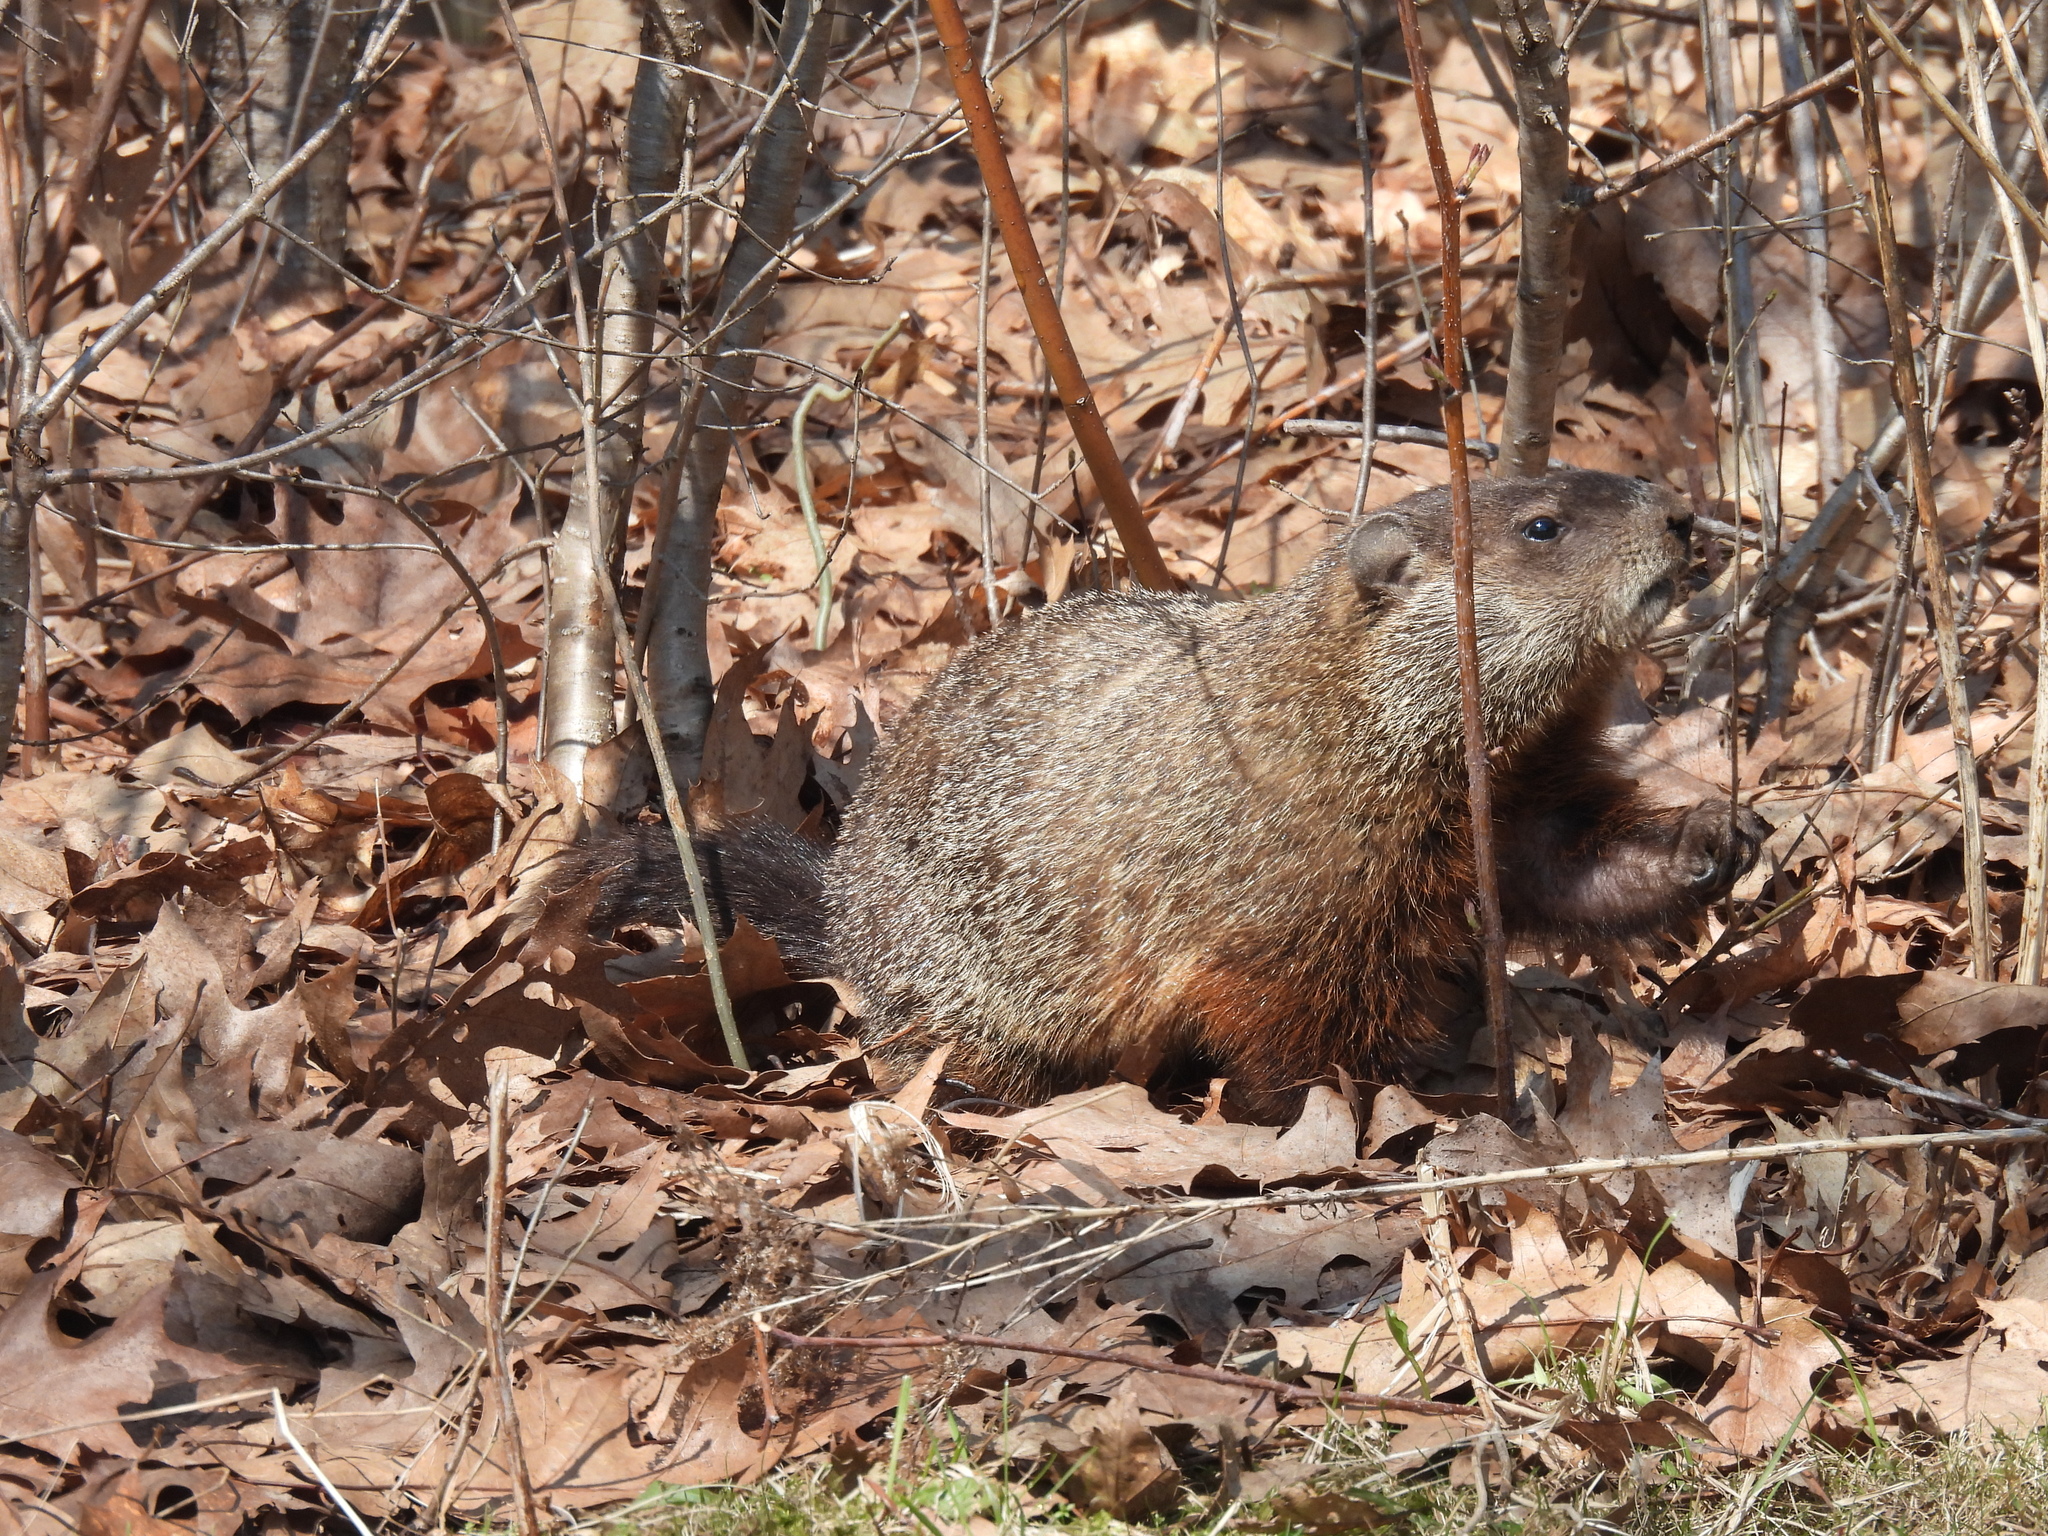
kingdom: Animalia
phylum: Chordata
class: Mammalia
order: Rodentia
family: Sciuridae
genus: Marmota
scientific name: Marmota monax
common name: Groundhog
